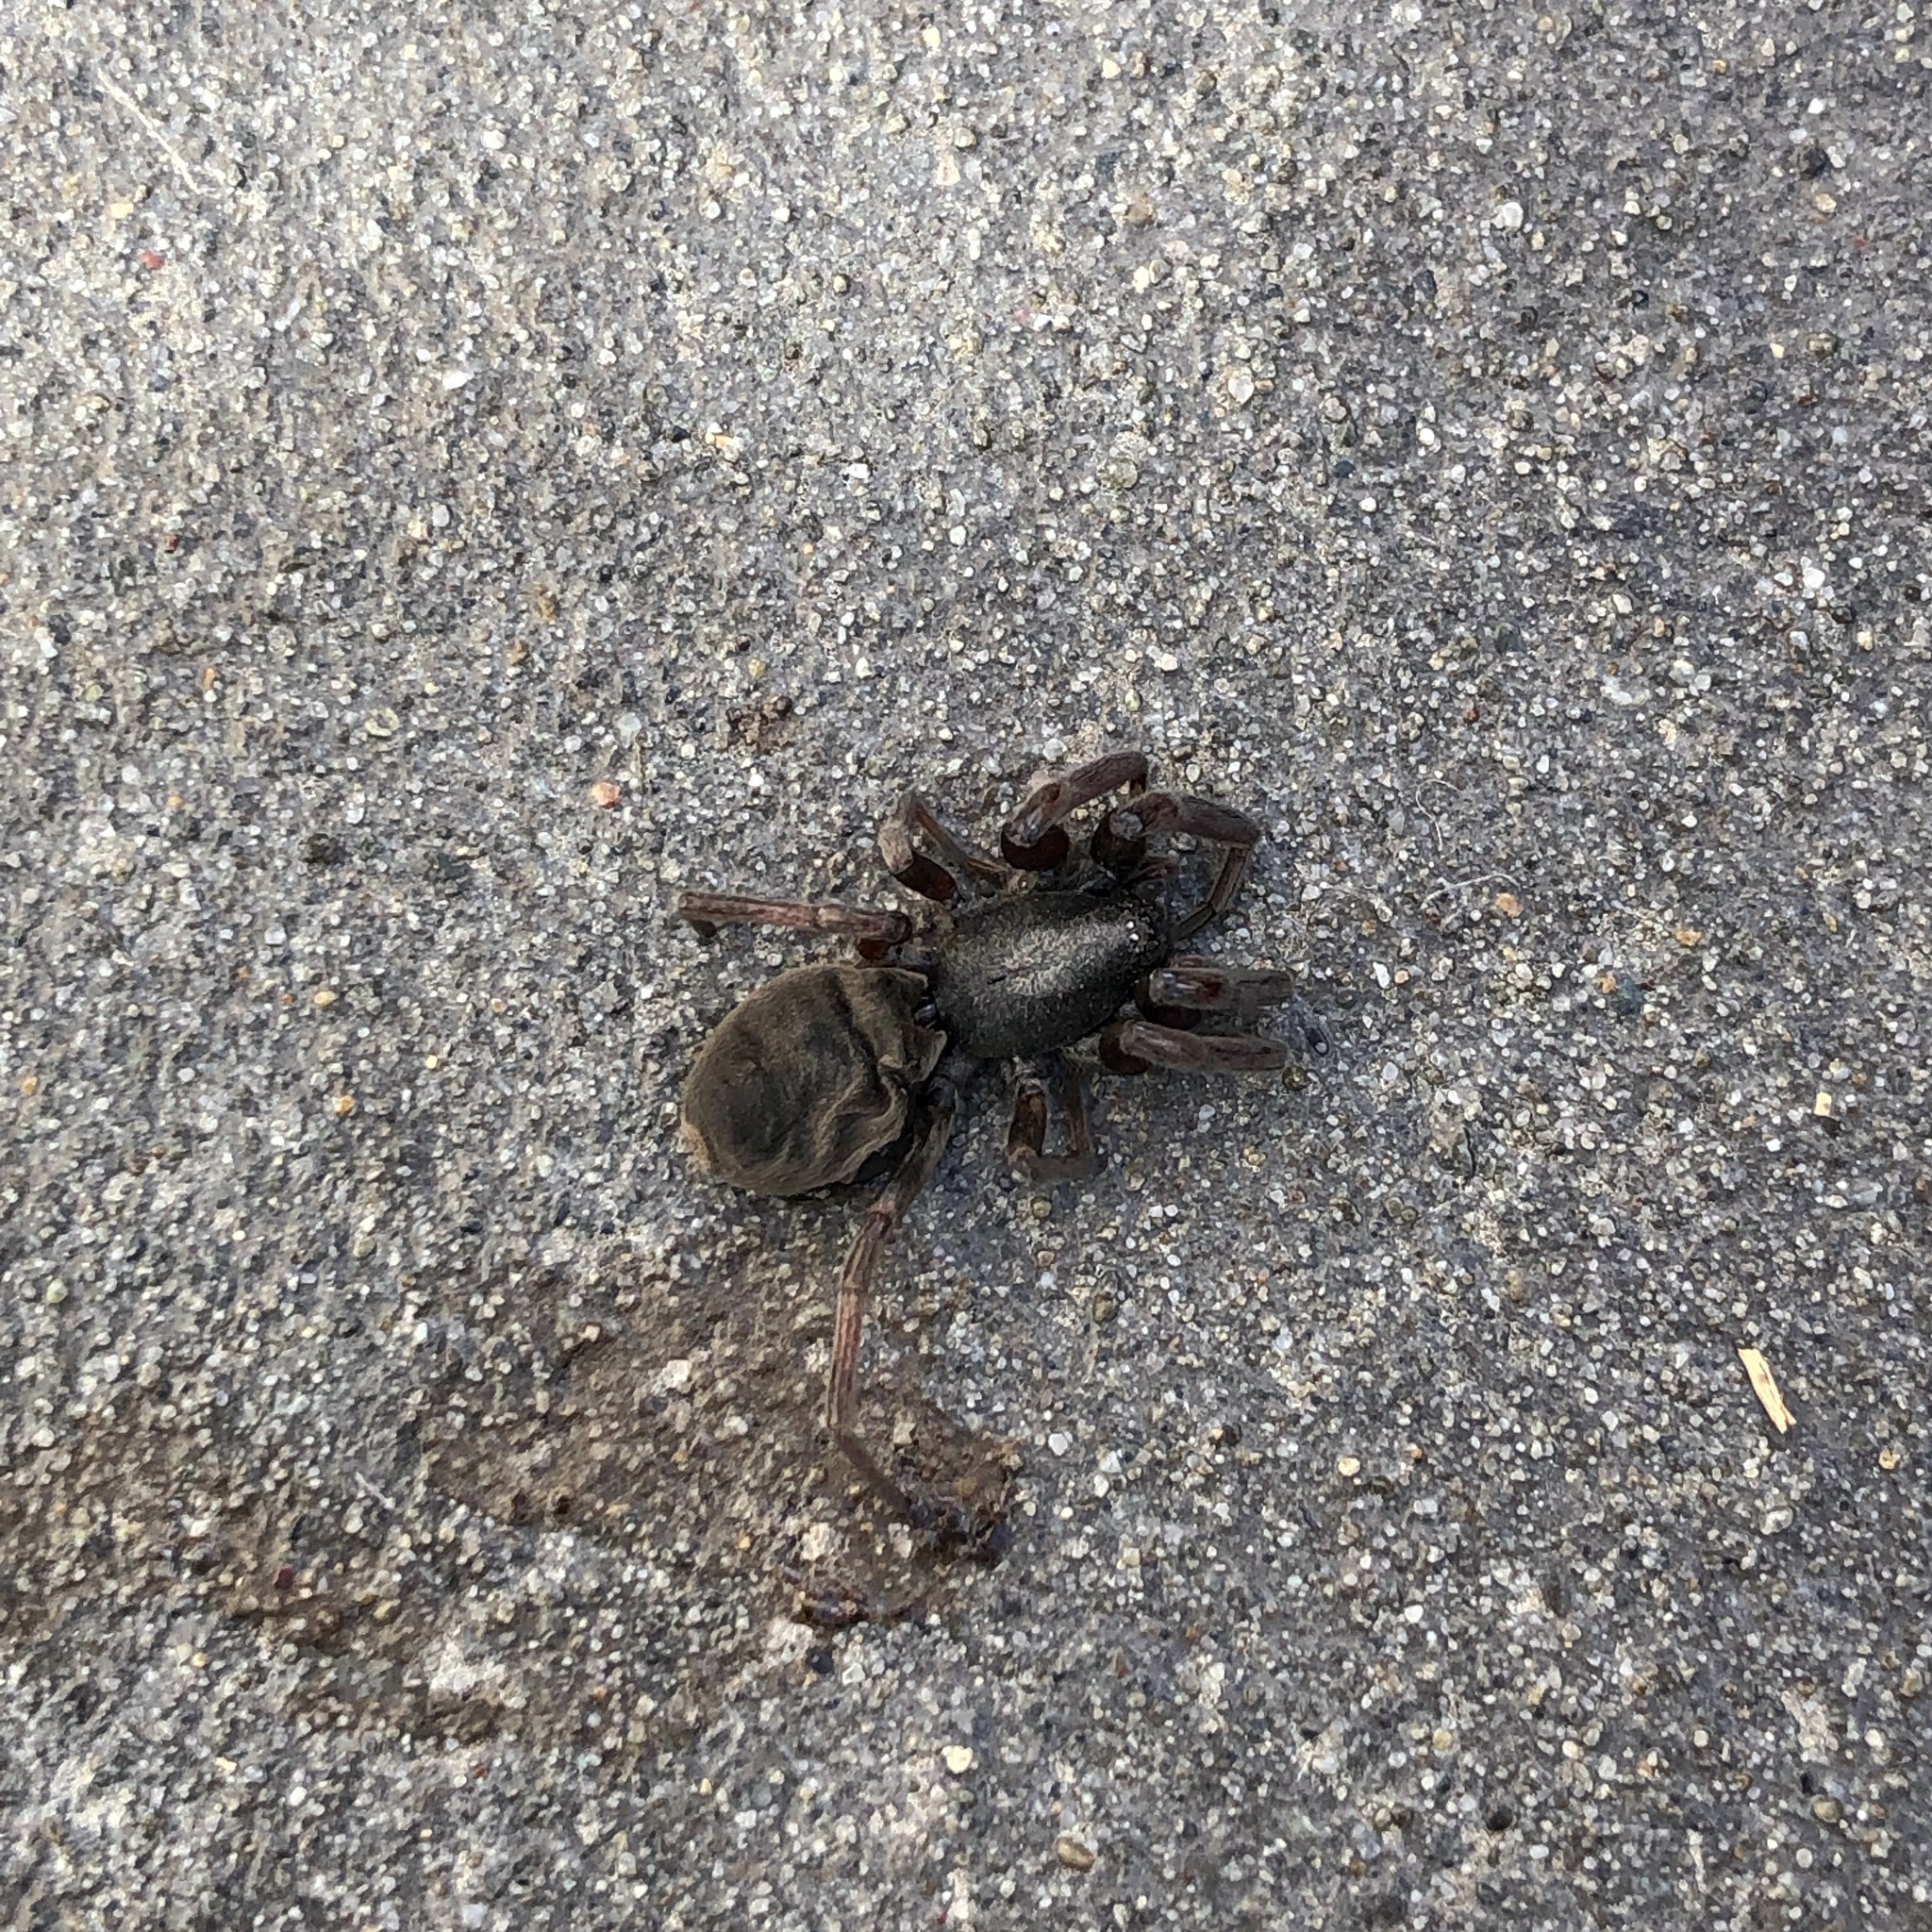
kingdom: Animalia
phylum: Arthropoda
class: Arachnida
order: Araneae
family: Lamponidae
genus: Lampona
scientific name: Lampona cylindrata
